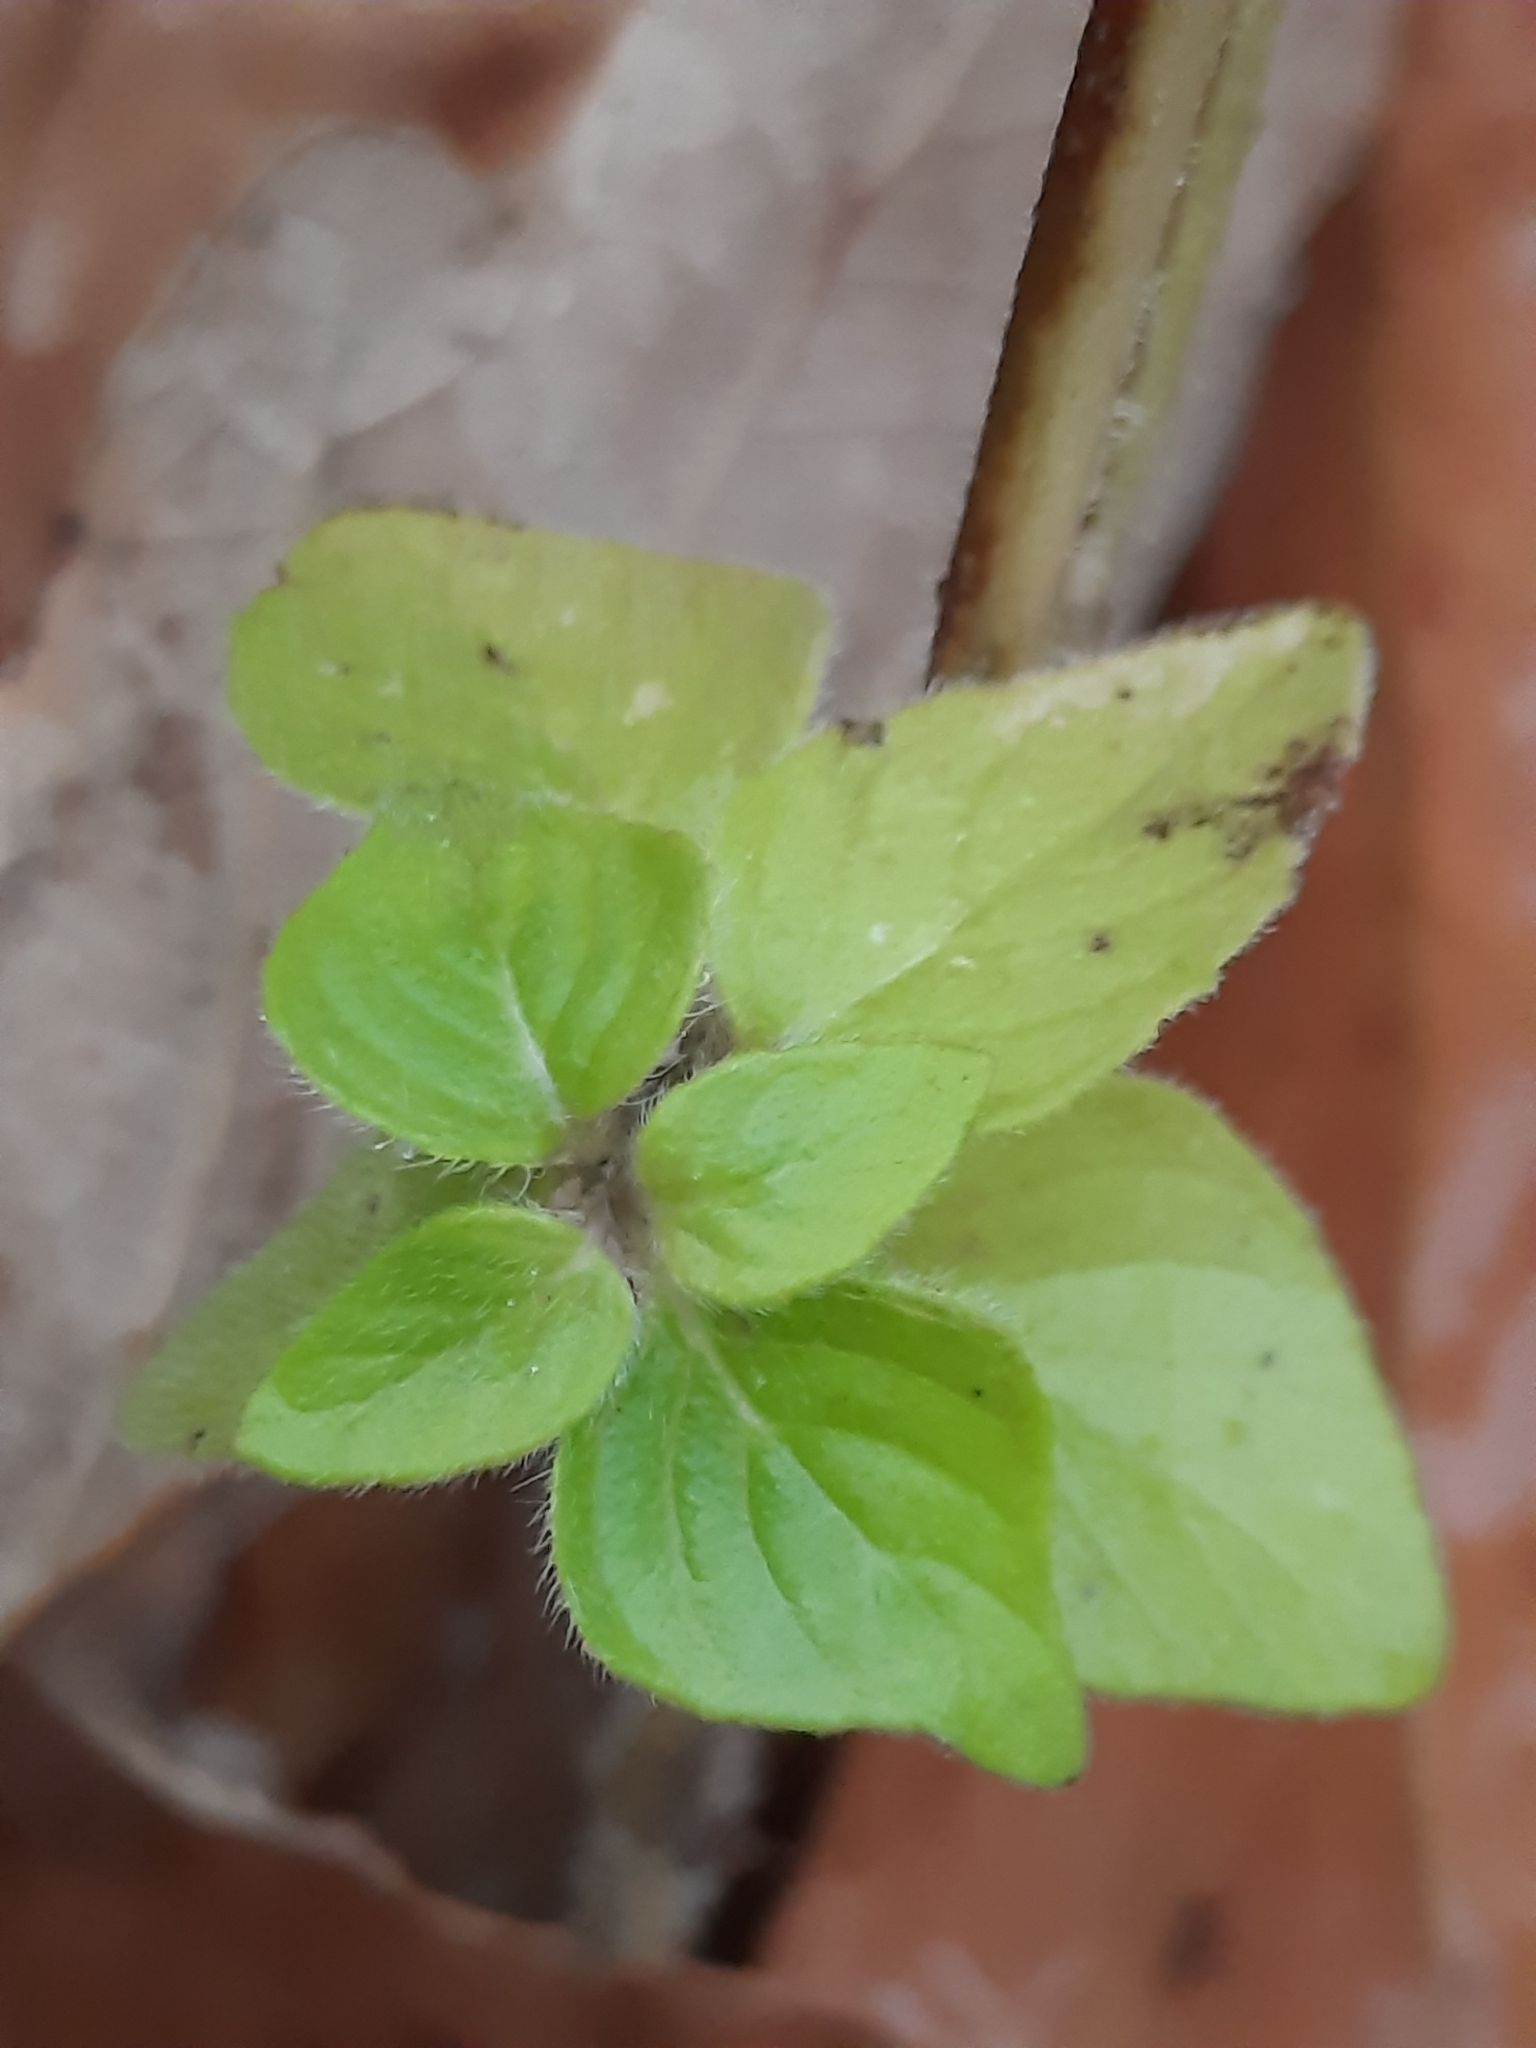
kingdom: Plantae
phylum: Tracheophyta
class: Magnoliopsida
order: Lamiales
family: Lamiaceae
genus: Clinopodium
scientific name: Clinopodium vulgare
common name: Wild basil
